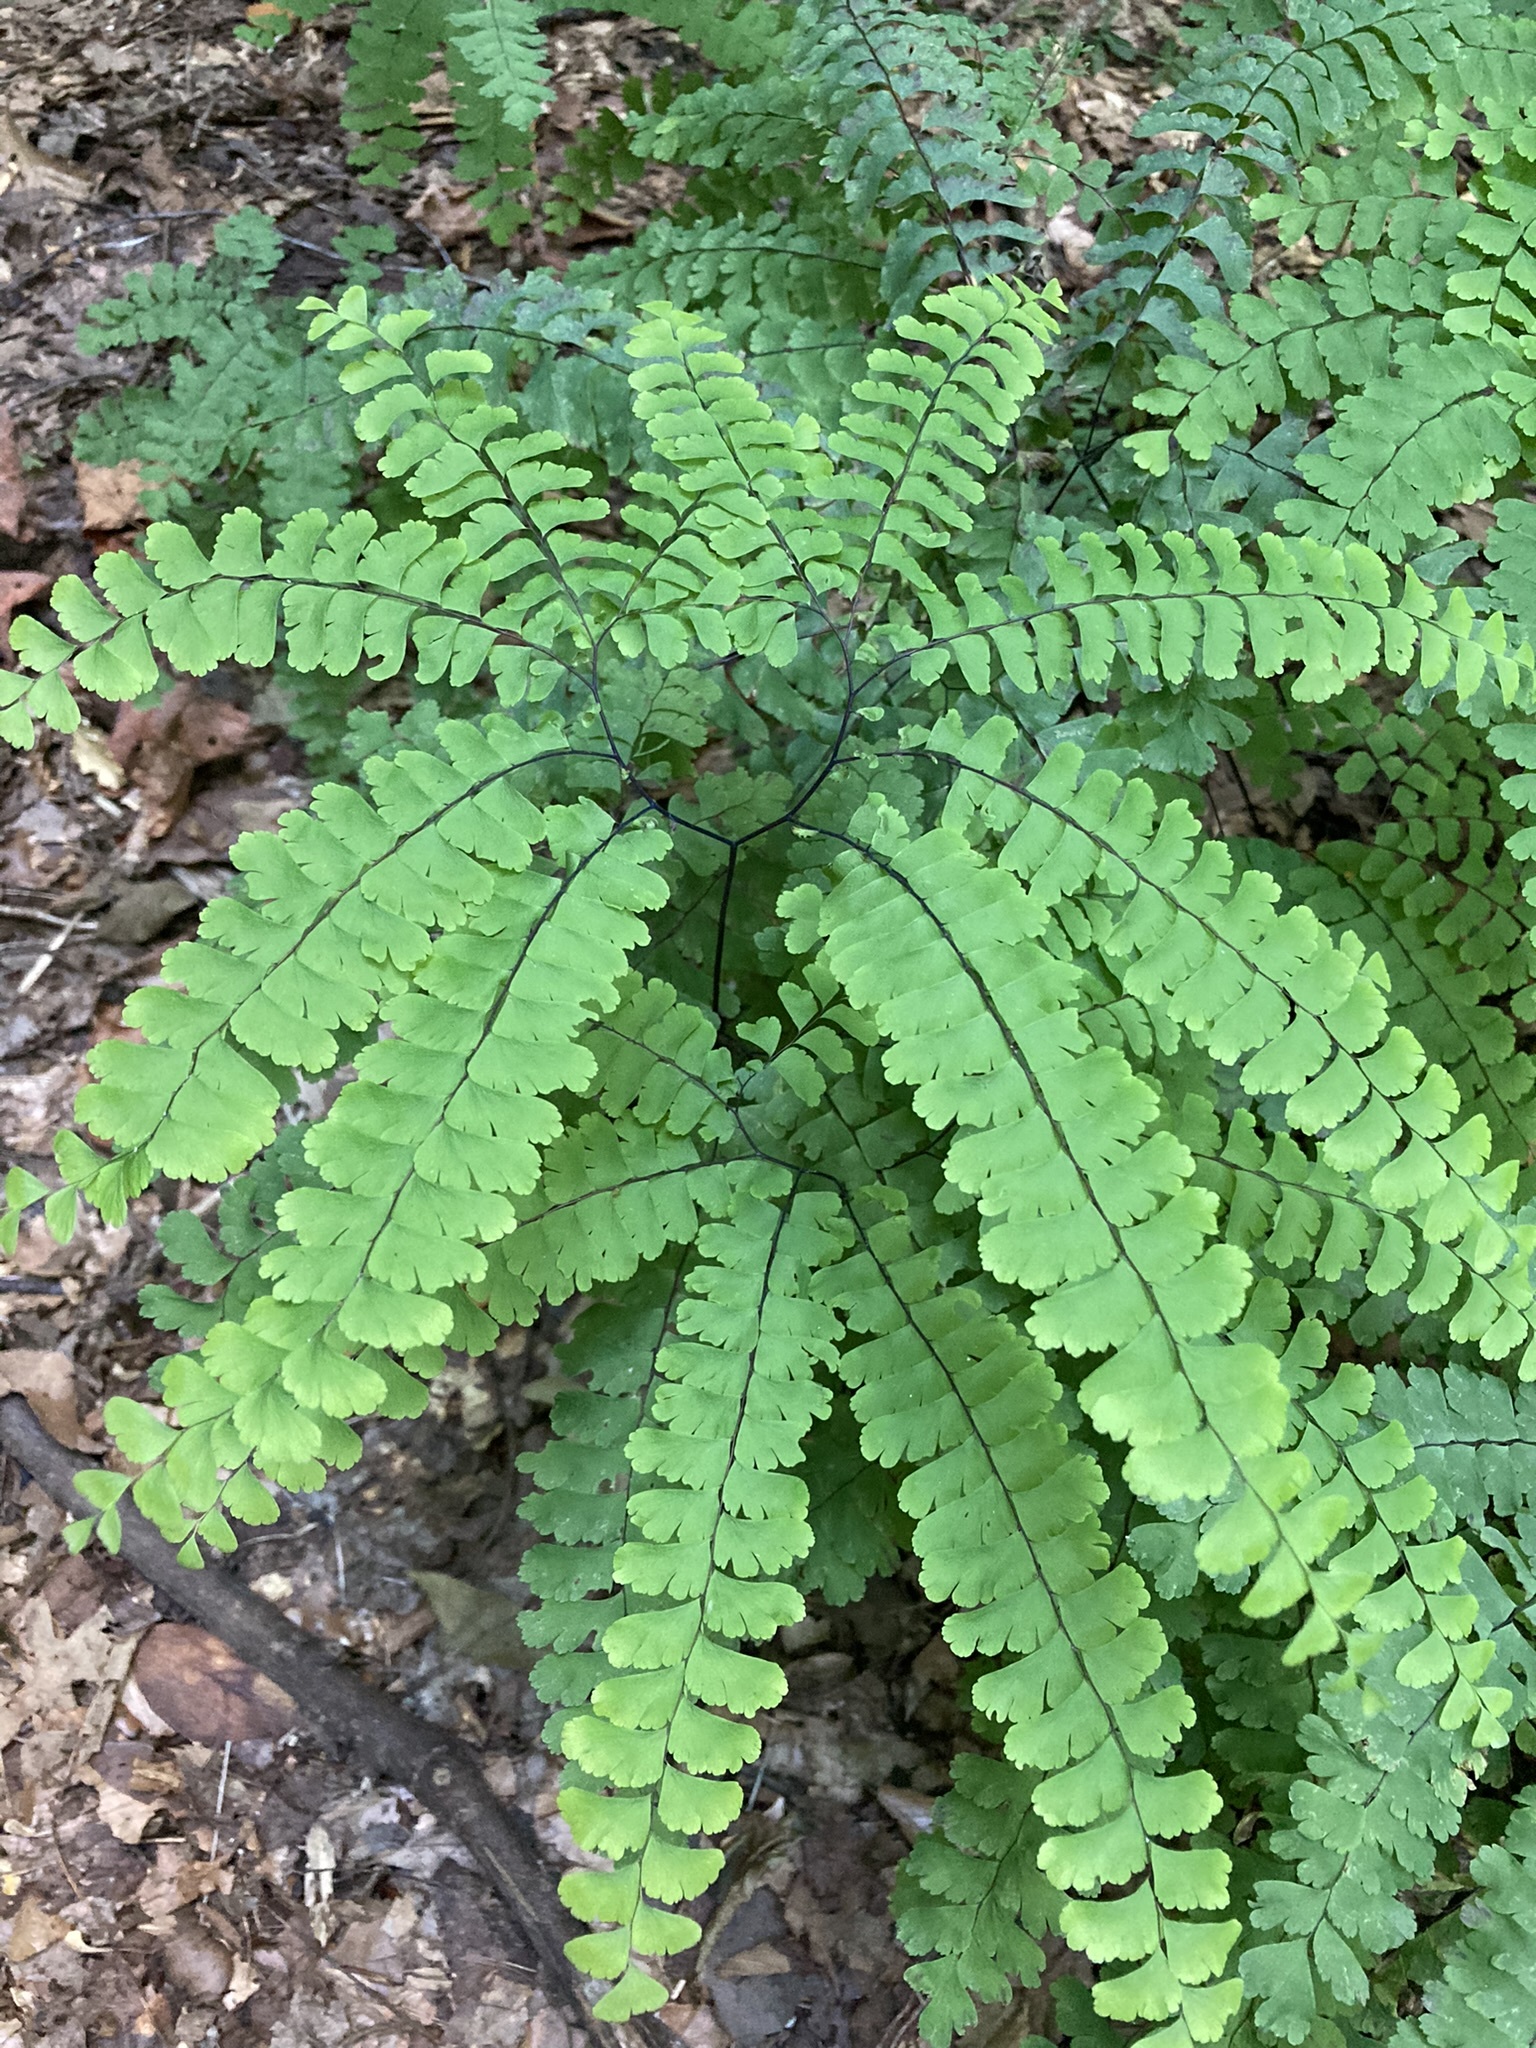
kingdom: Plantae
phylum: Tracheophyta
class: Polypodiopsida
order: Polypodiales
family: Pteridaceae
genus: Adiantum
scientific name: Adiantum pedatum
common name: Five-finger fern
